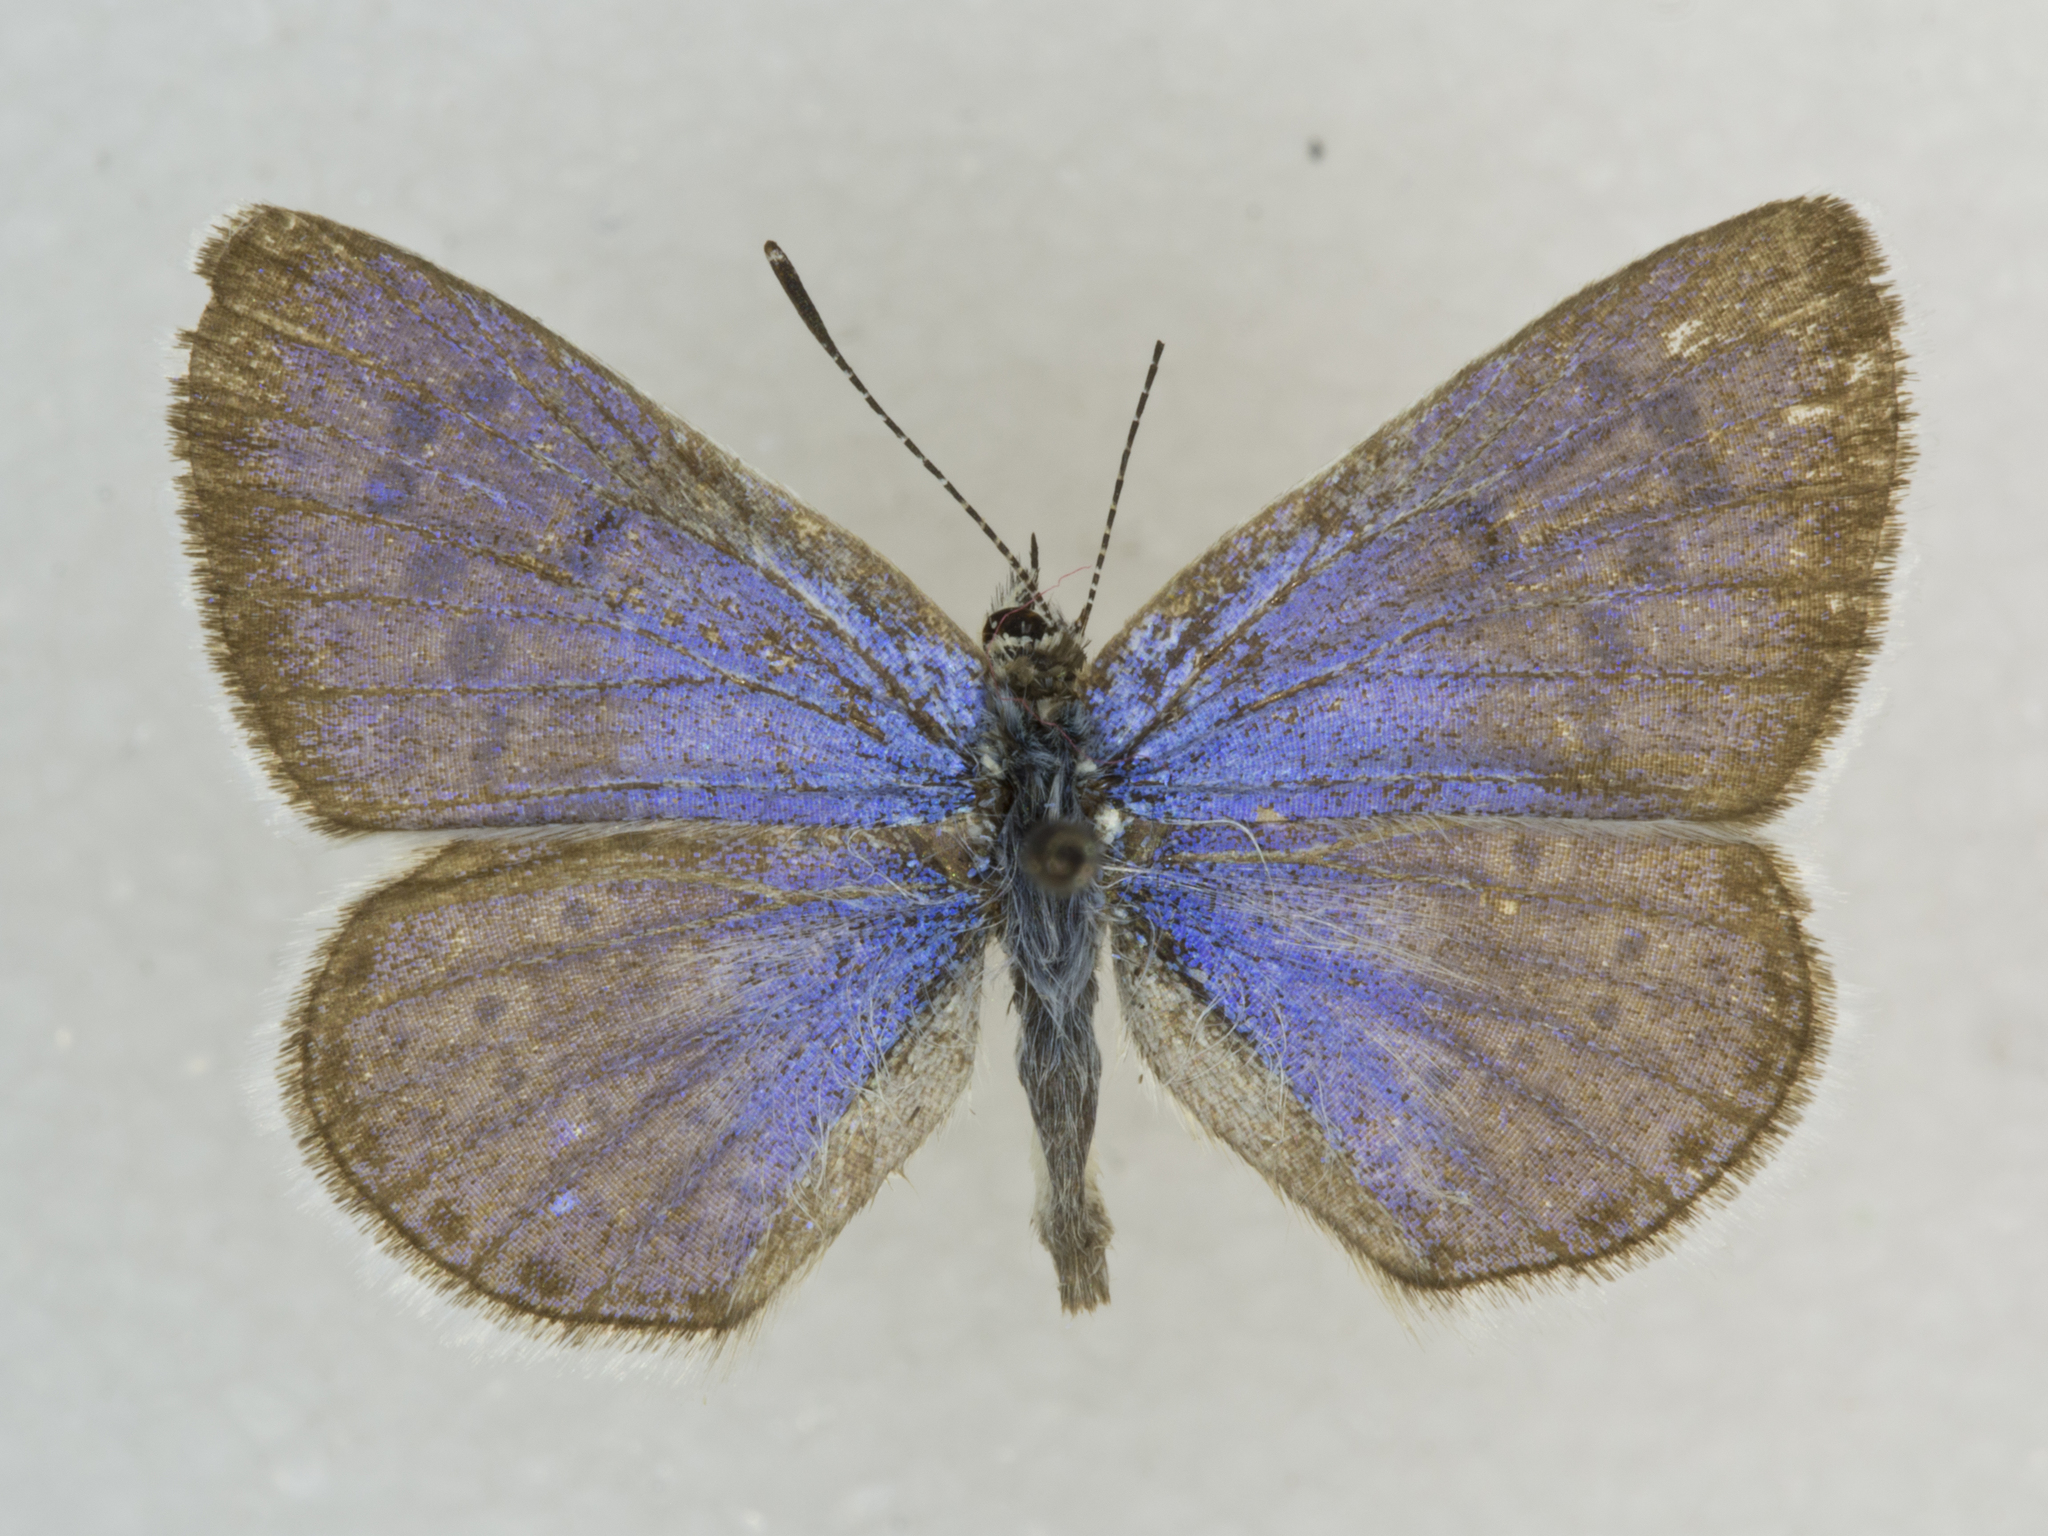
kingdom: Animalia
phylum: Arthropoda
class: Insecta
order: Lepidoptera
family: Lycaenidae
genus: Icaricia
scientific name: Icaricia icarioides
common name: Boisduval's blue
